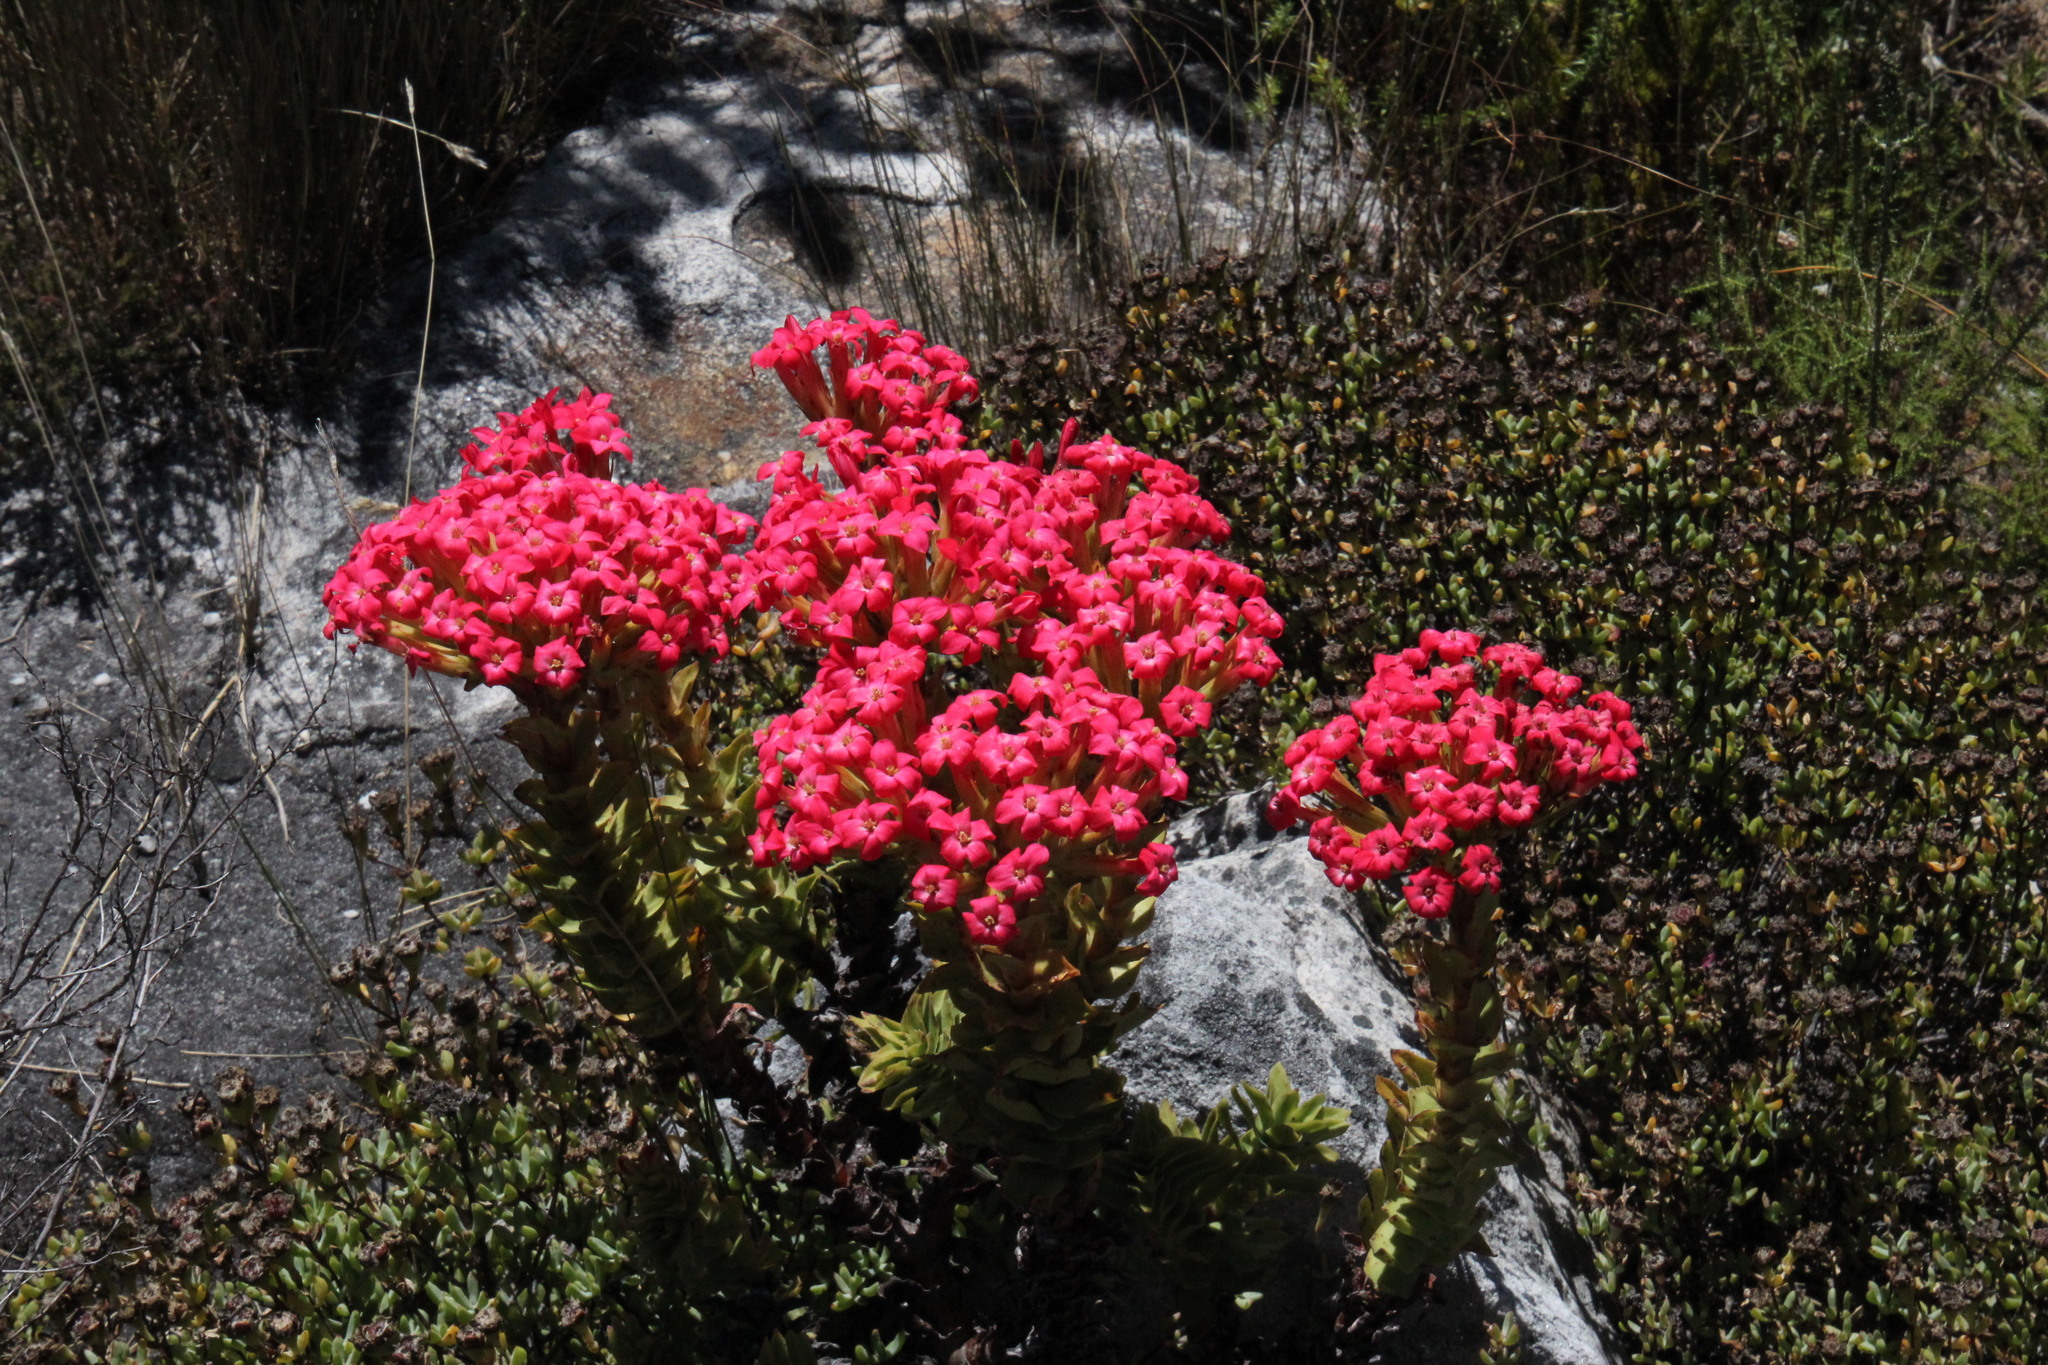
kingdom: Plantae
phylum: Tracheophyta
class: Magnoliopsida
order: Saxifragales
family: Crassulaceae
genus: Crassula
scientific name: Crassula coccinea
